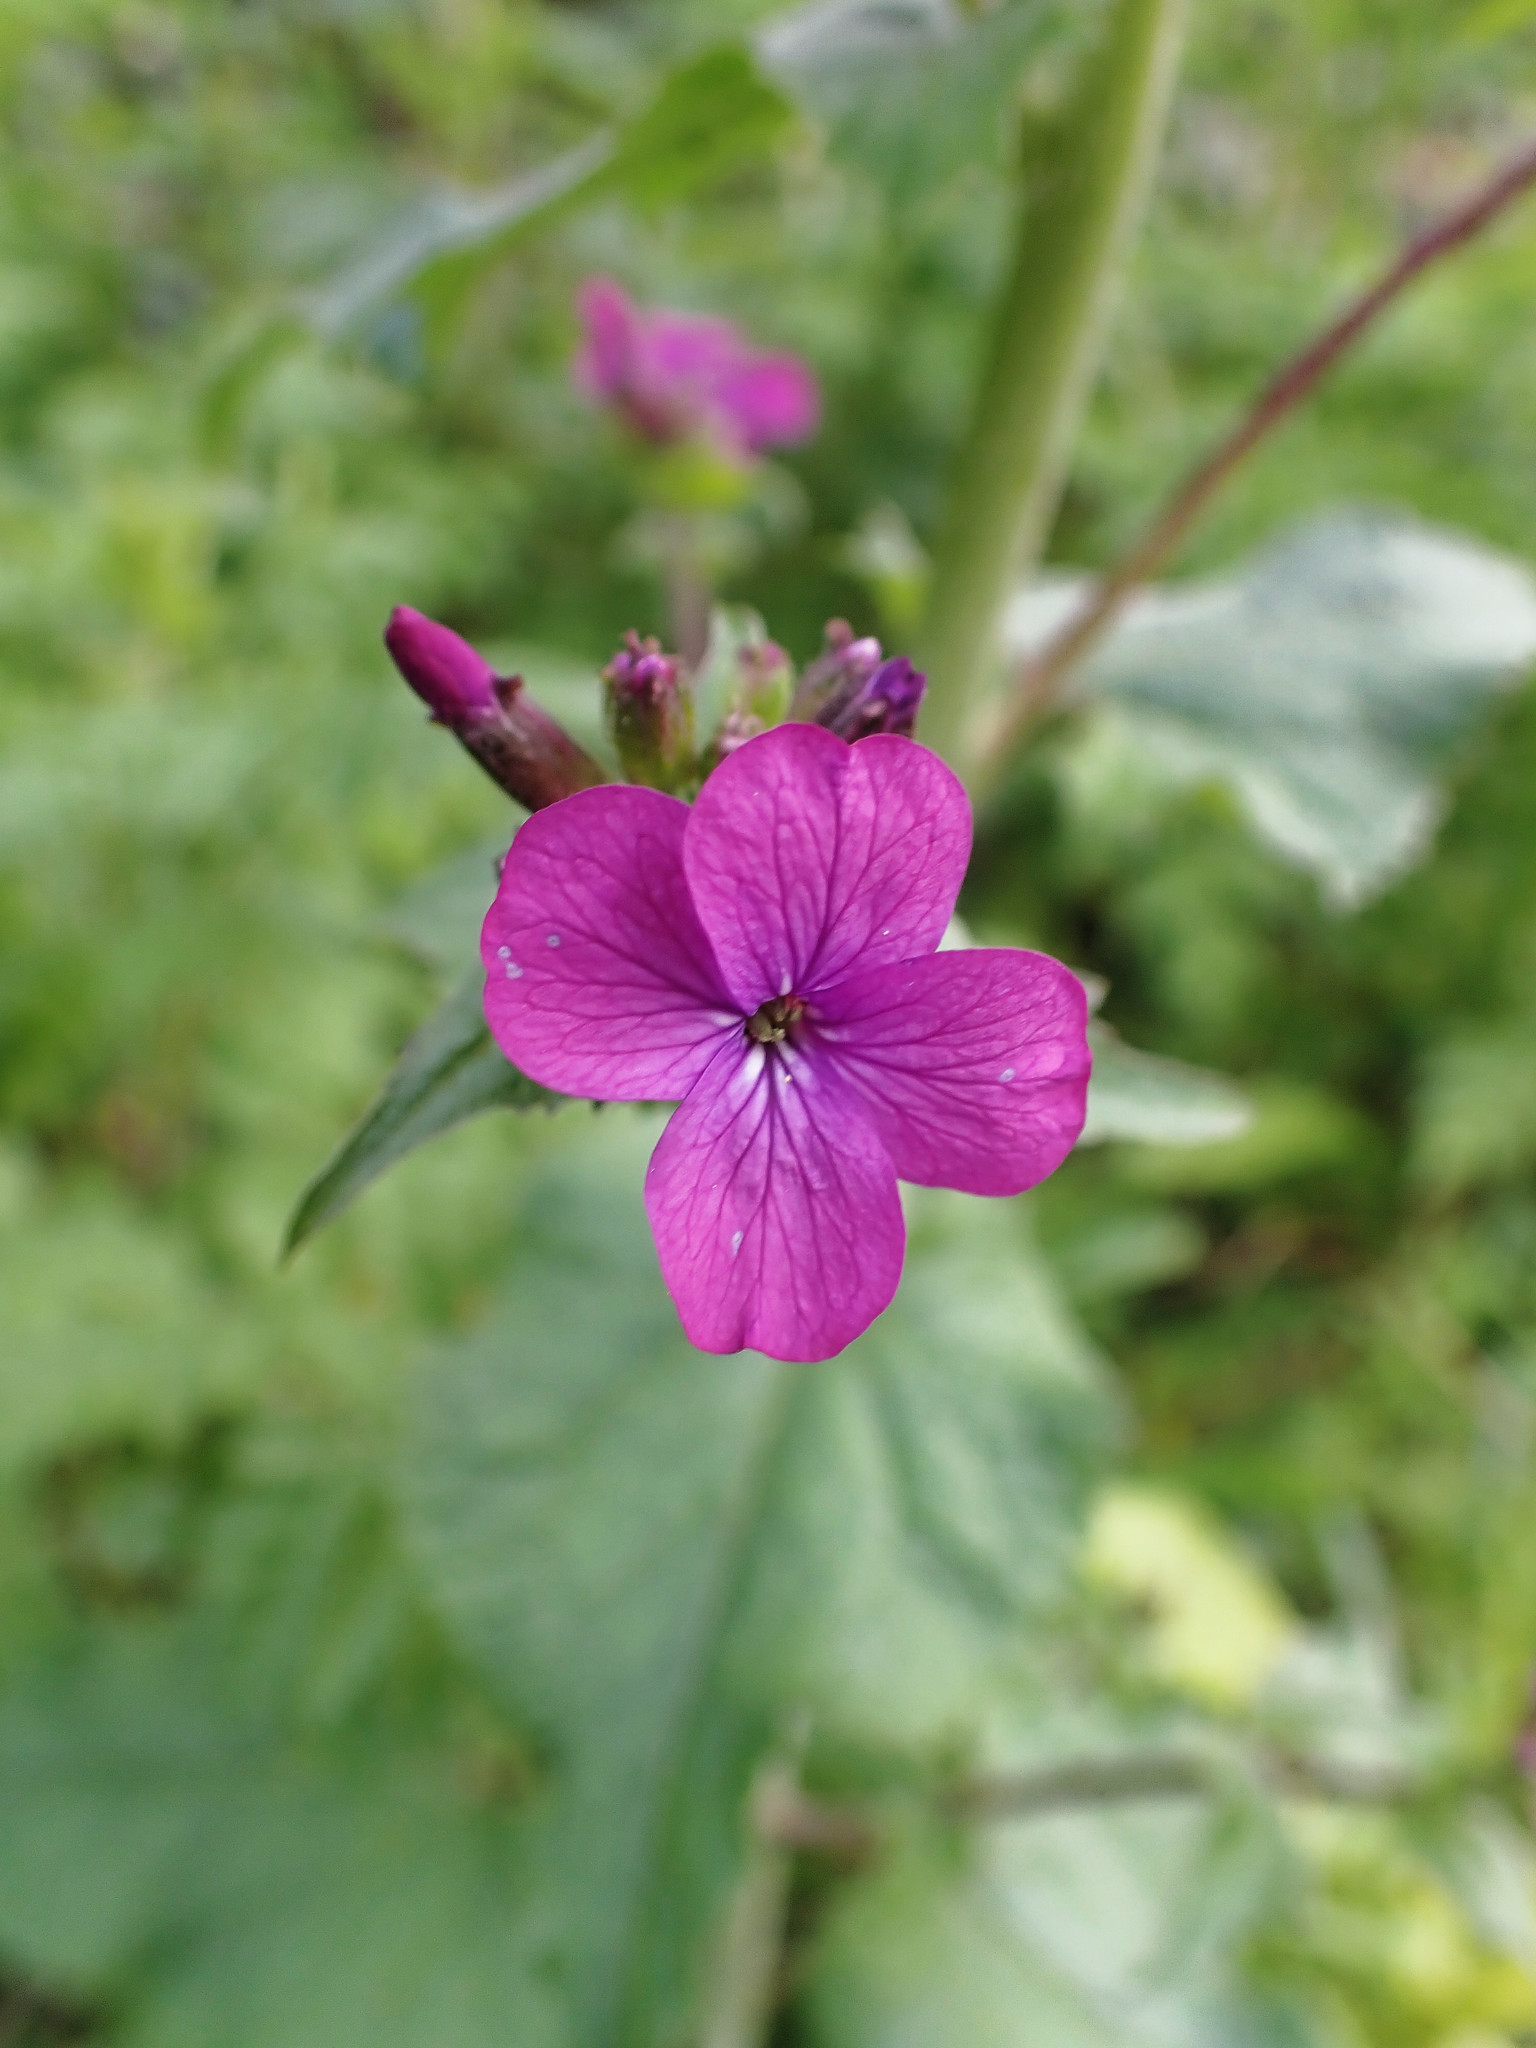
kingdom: Plantae
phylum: Tracheophyta
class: Magnoliopsida
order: Brassicales
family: Brassicaceae
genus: Lunaria
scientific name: Lunaria annua
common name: Honesty
